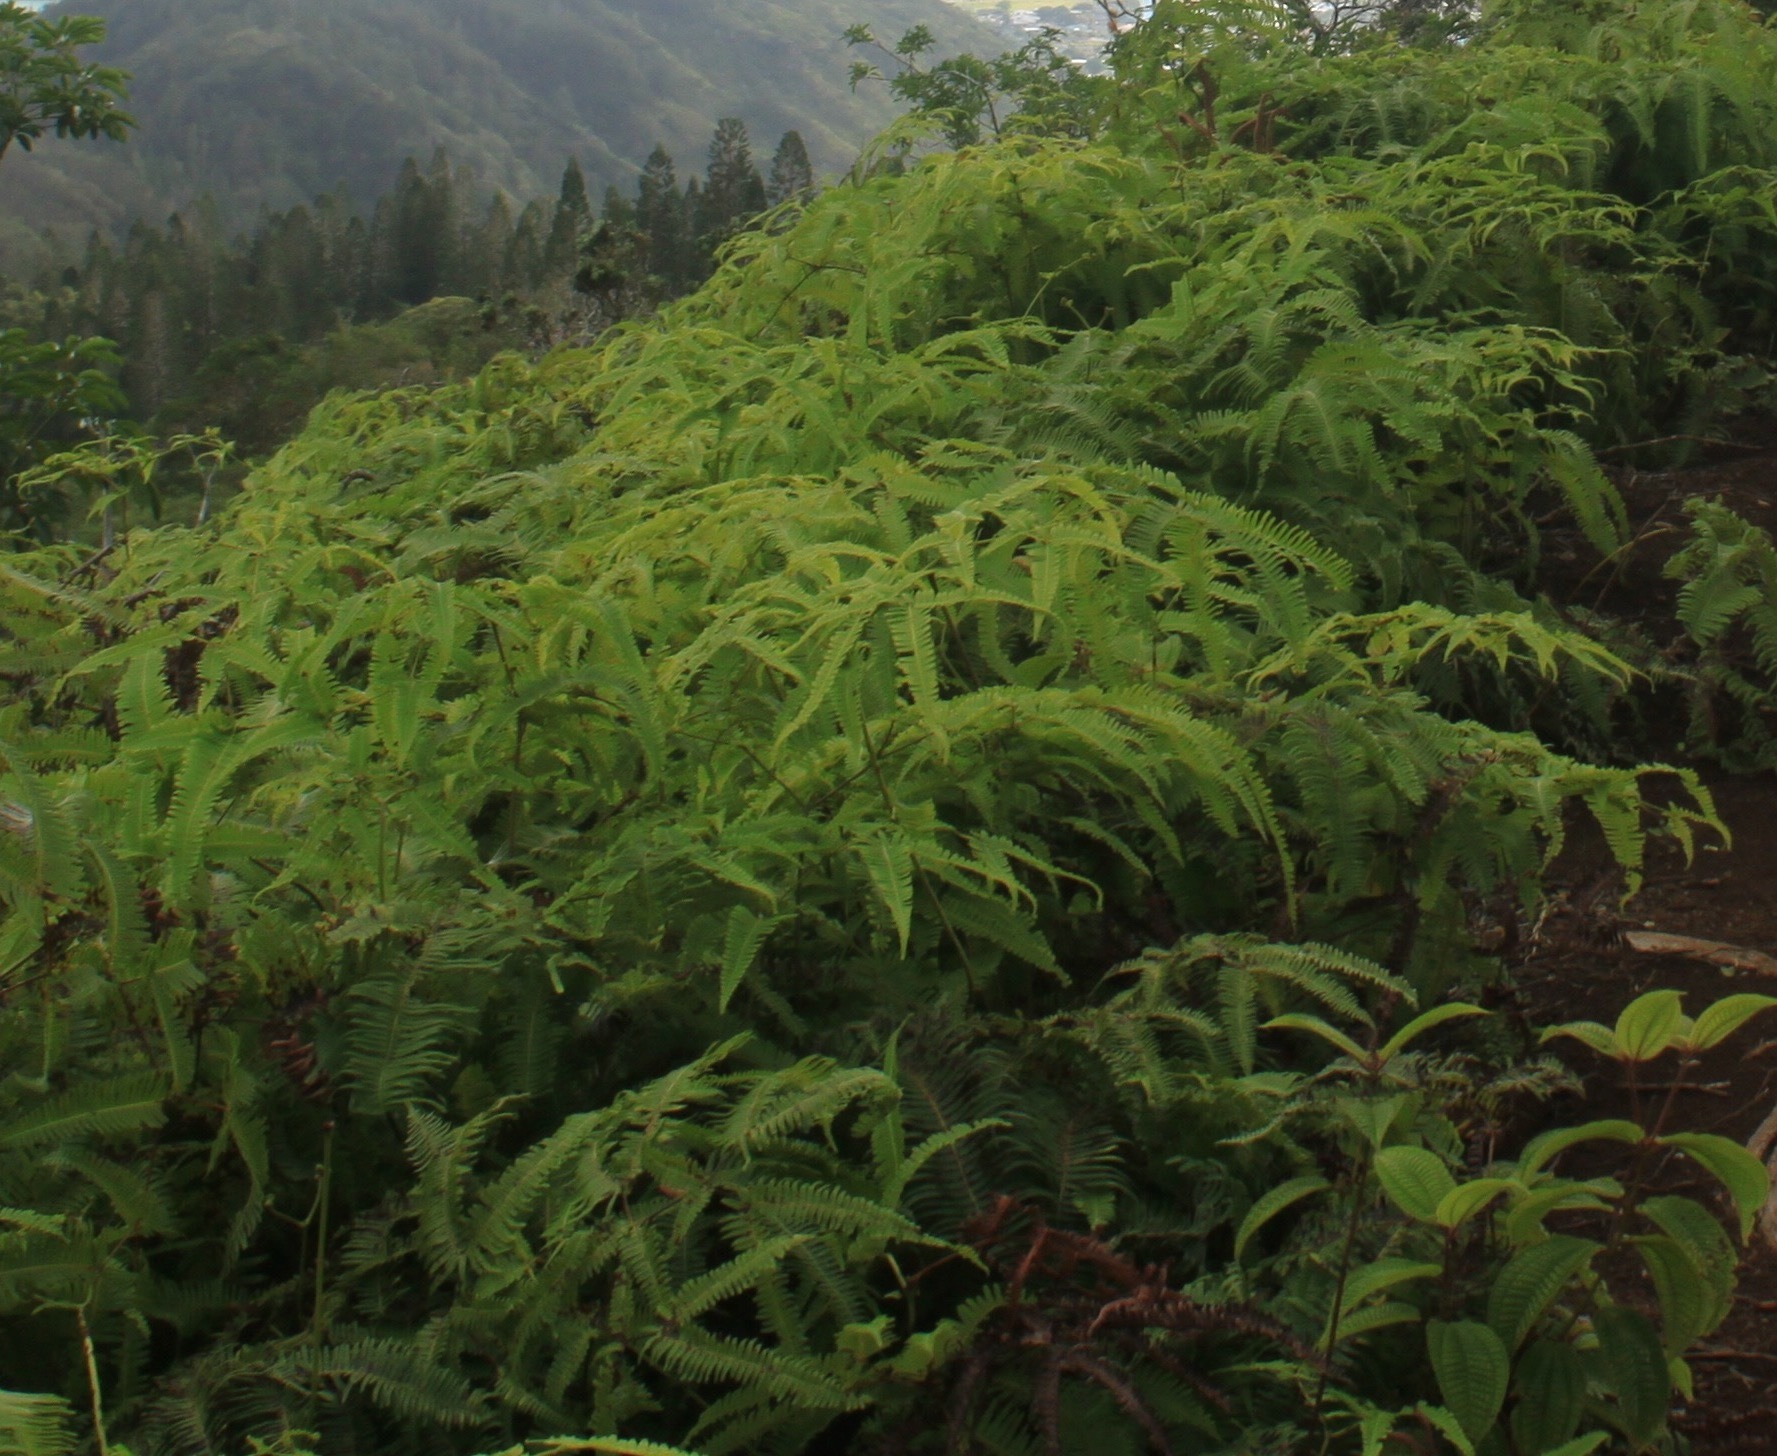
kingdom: Plantae
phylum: Tracheophyta
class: Polypodiopsida
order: Gleicheniales
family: Gleicheniaceae
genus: Dicranopteris
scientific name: Dicranopteris linearis
